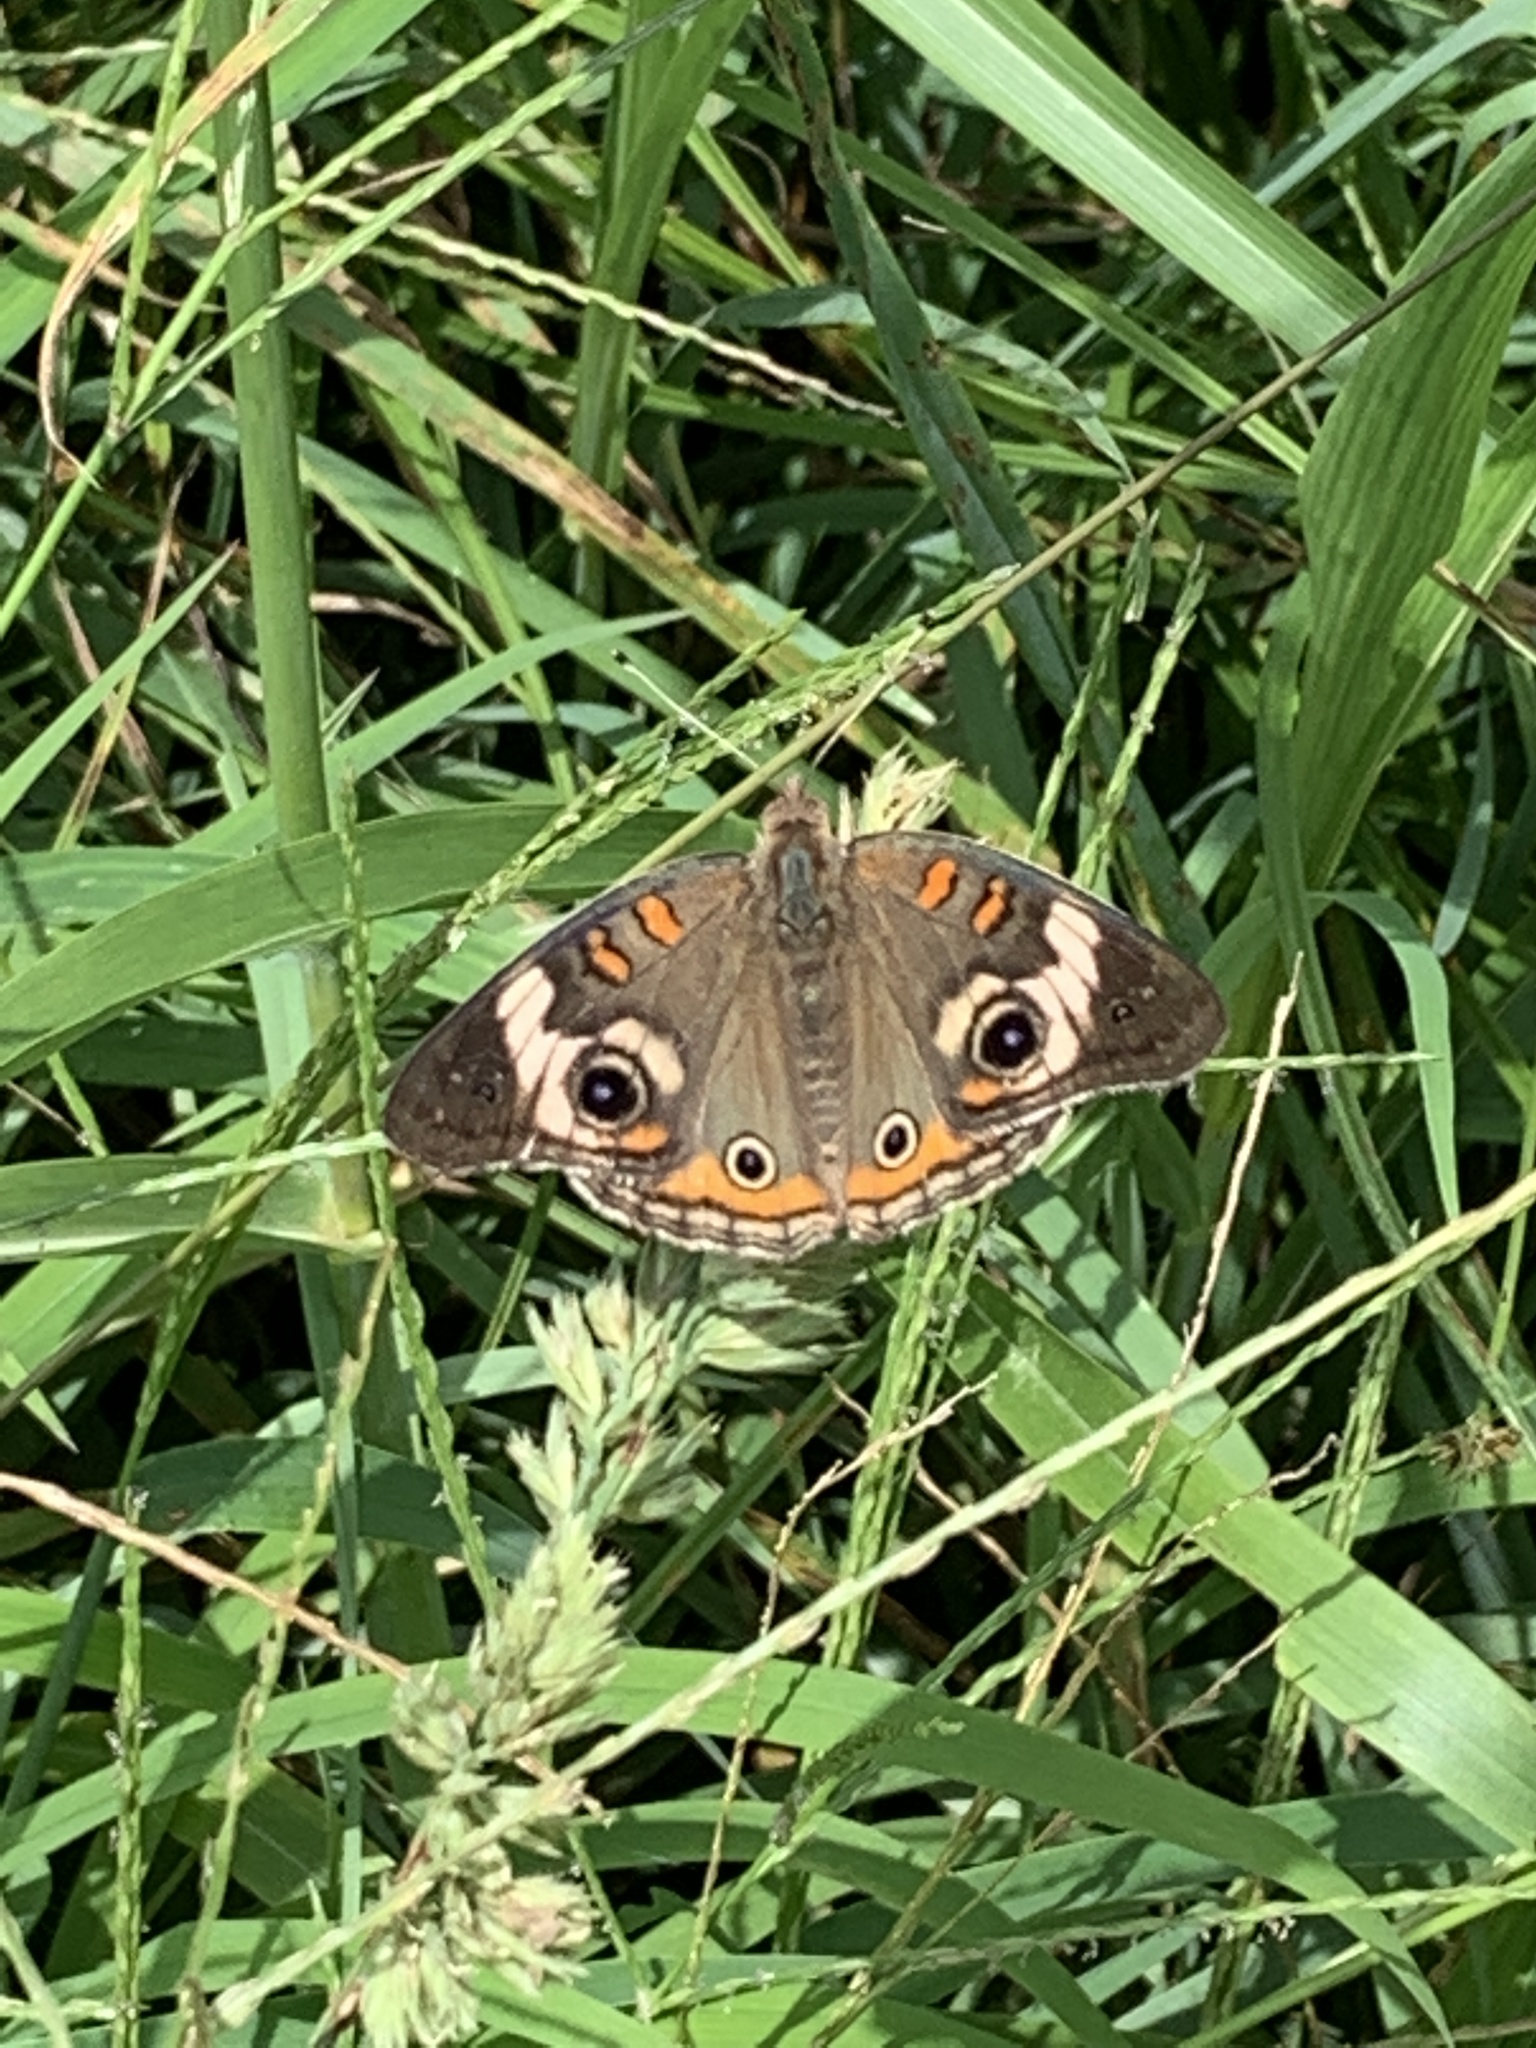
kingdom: Animalia
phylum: Arthropoda
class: Insecta
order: Lepidoptera
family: Nymphalidae
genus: Junonia
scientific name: Junonia coenia
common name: Common buckeye
